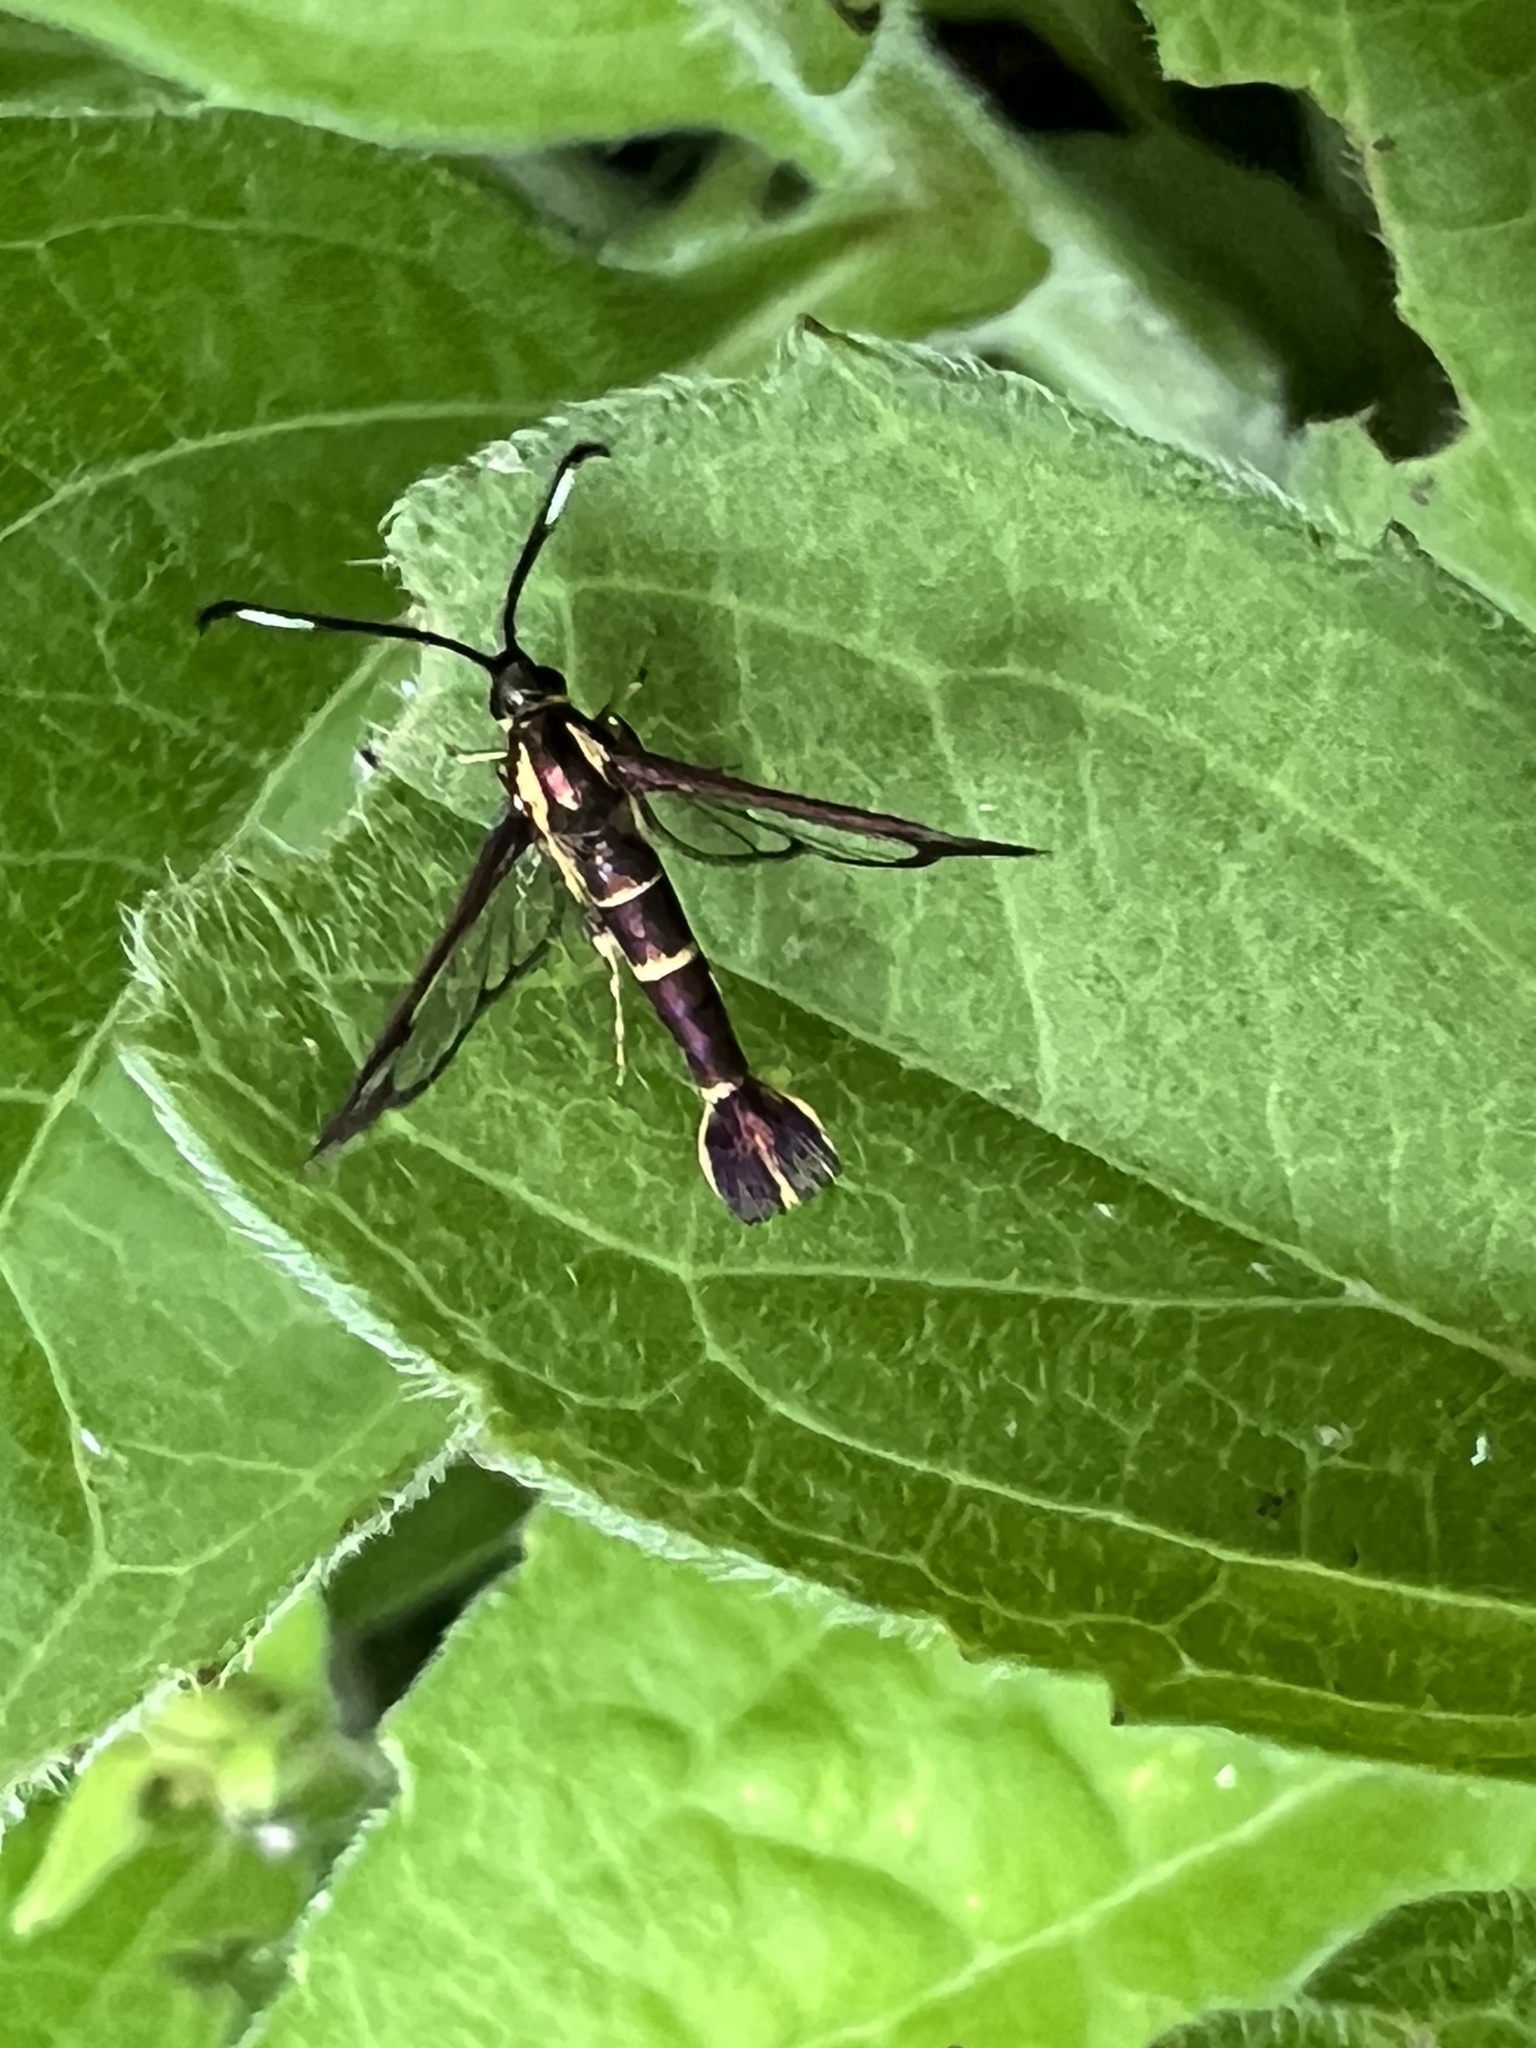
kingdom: Animalia
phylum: Arthropoda
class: Insecta
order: Lepidoptera
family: Sesiidae
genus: Carmenta
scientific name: Carmenta bassiformis
